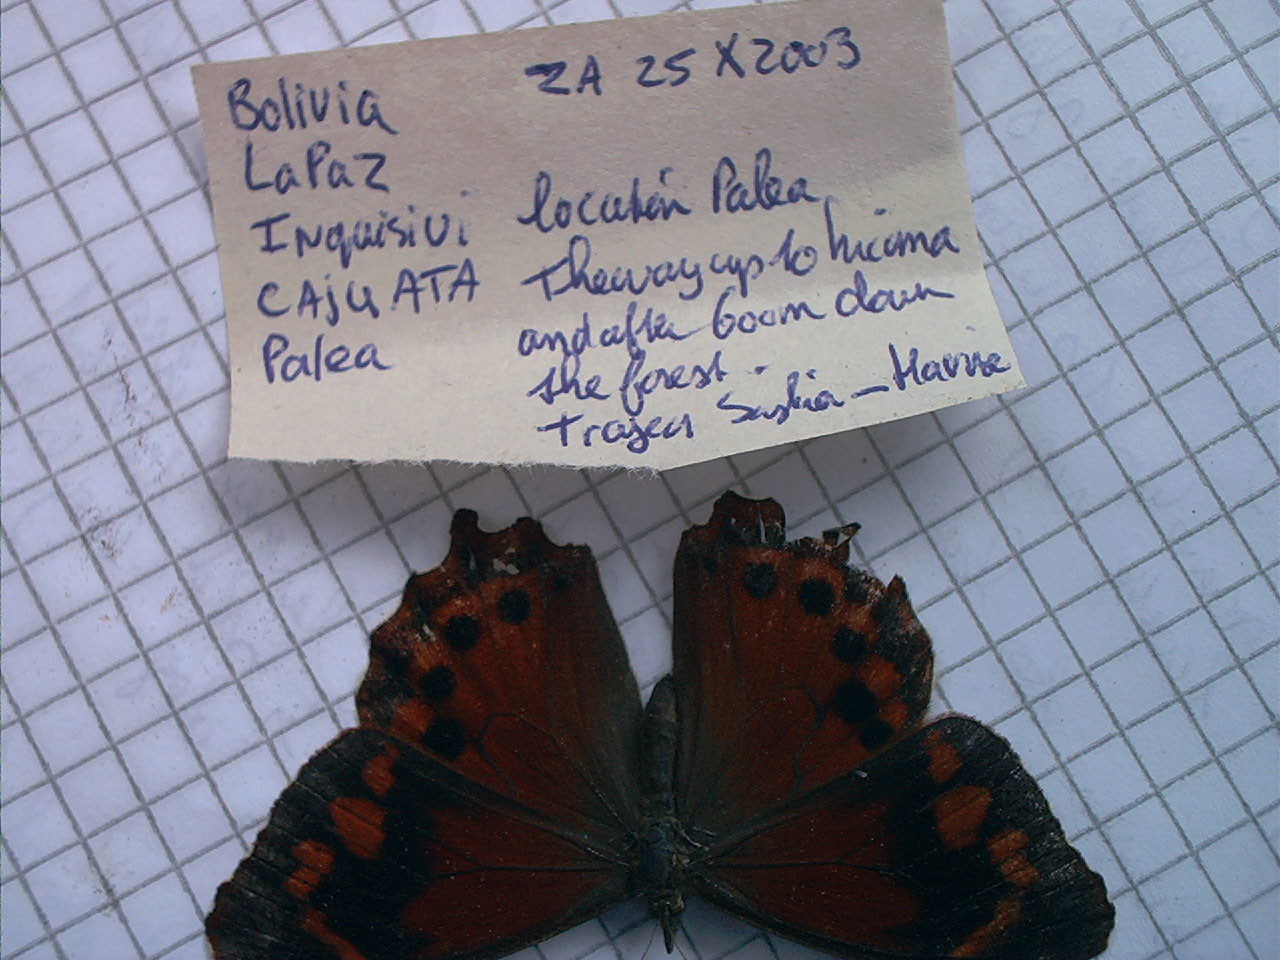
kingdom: Animalia
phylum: Arthropoda
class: Insecta
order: Lepidoptera
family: Nymphalidae
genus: Lasiophila
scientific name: Lasiophila orbifera
